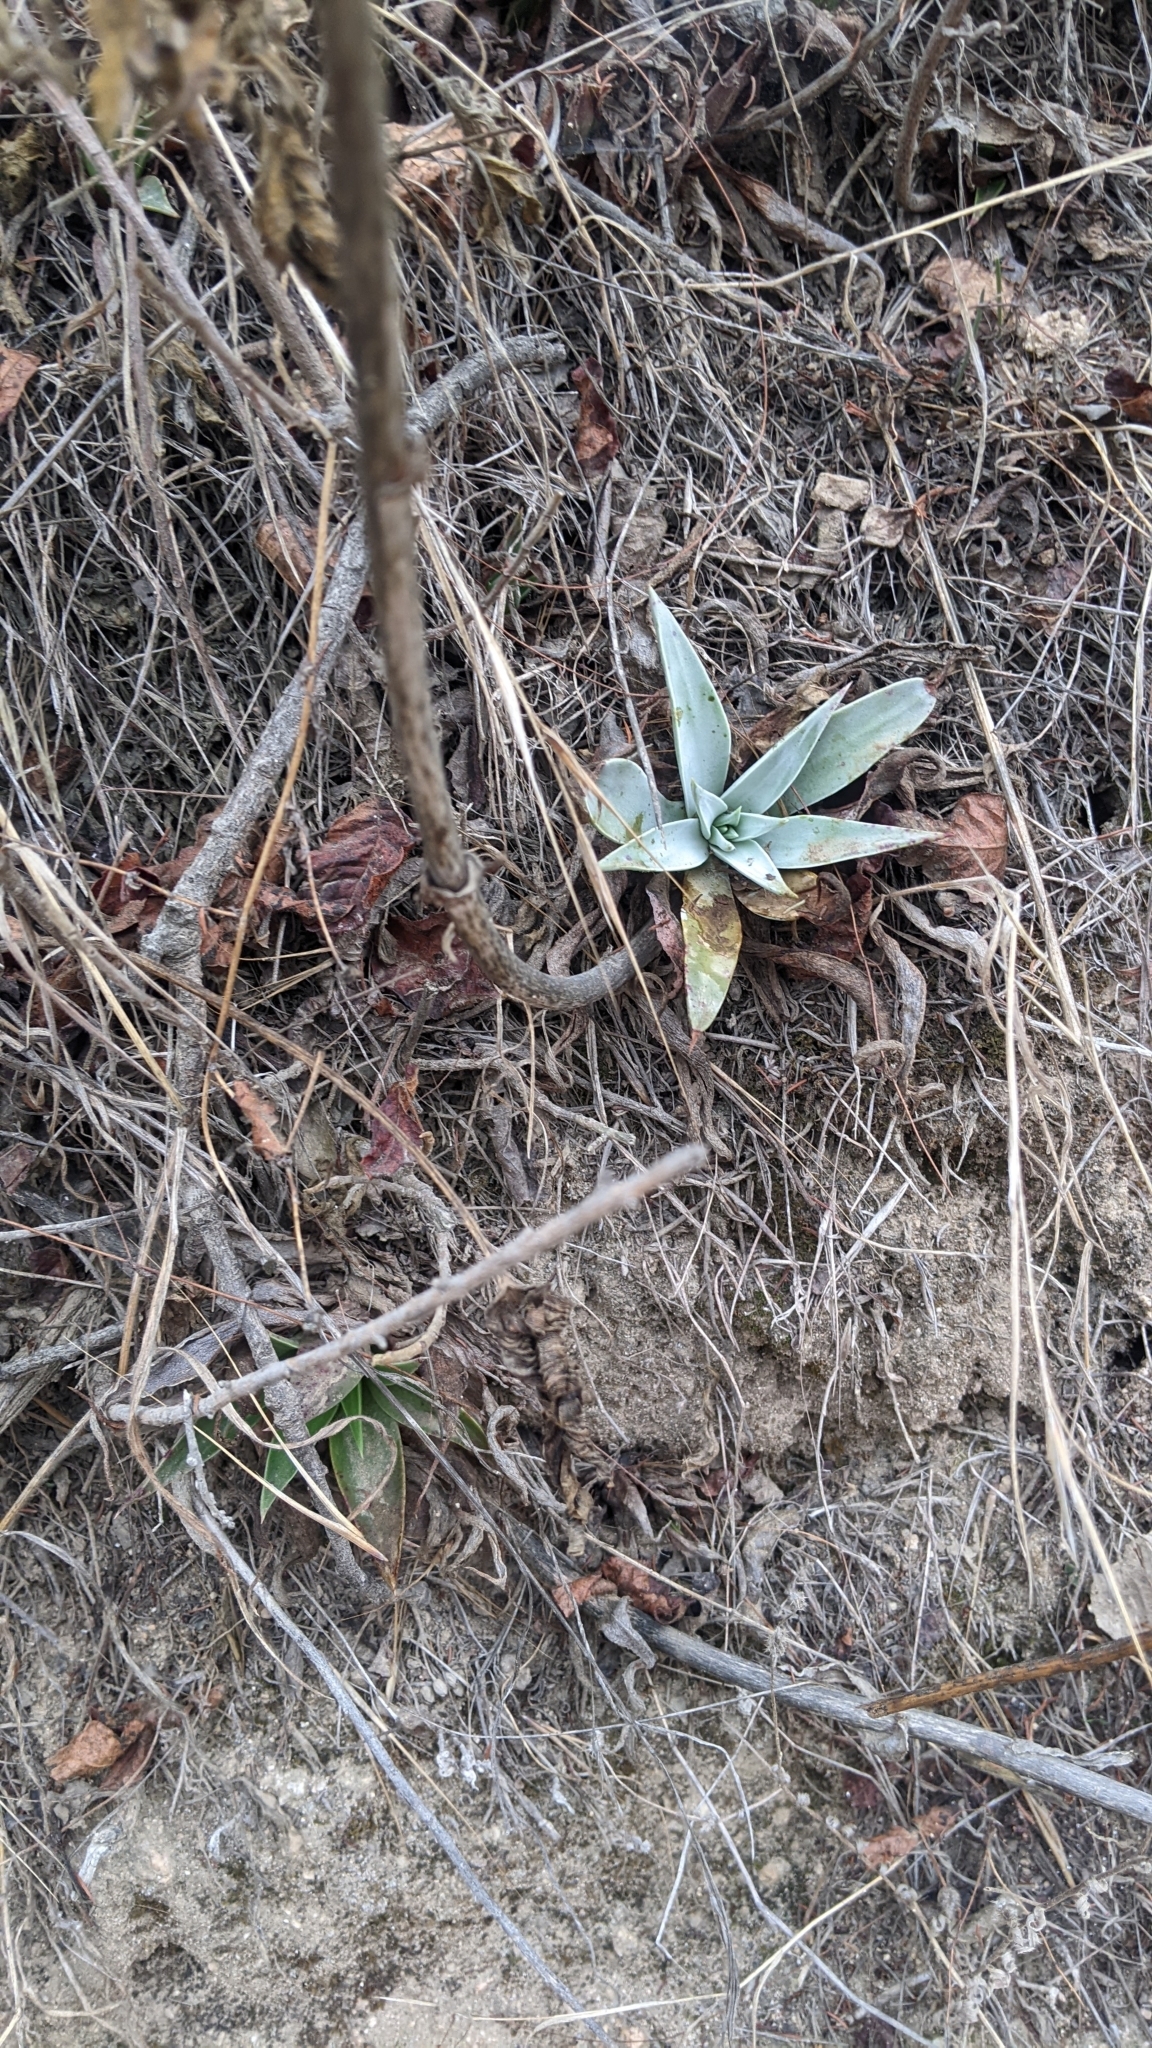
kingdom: Plantae
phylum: Tracheophyta
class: Magnoliopsida
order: Saxifragales
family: Crassulaceae
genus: Dudleya
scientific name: Dudleya lanceolata
